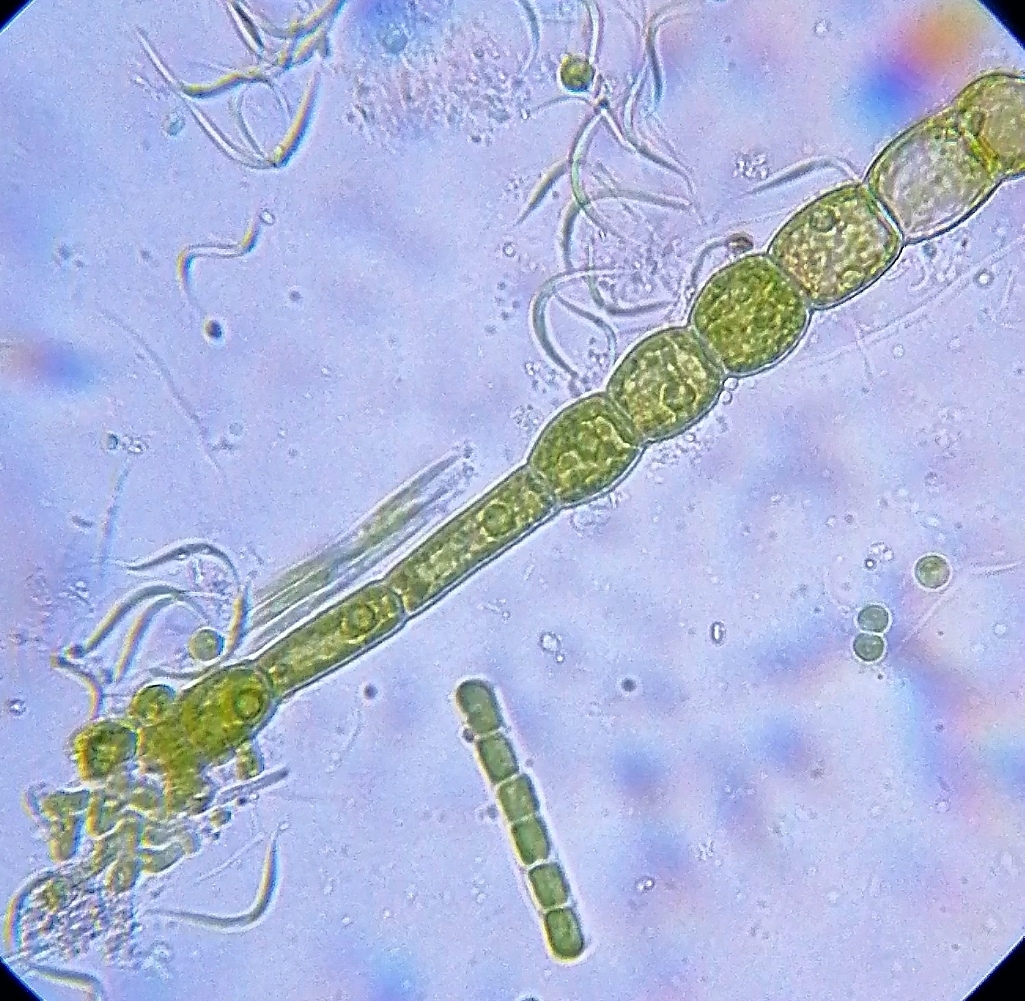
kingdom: Plantae
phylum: Chlorophyta
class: Chlorophyceae
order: Oedogoniales
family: Oedogoniaceae
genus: Oedogonium
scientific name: Oedogonium
